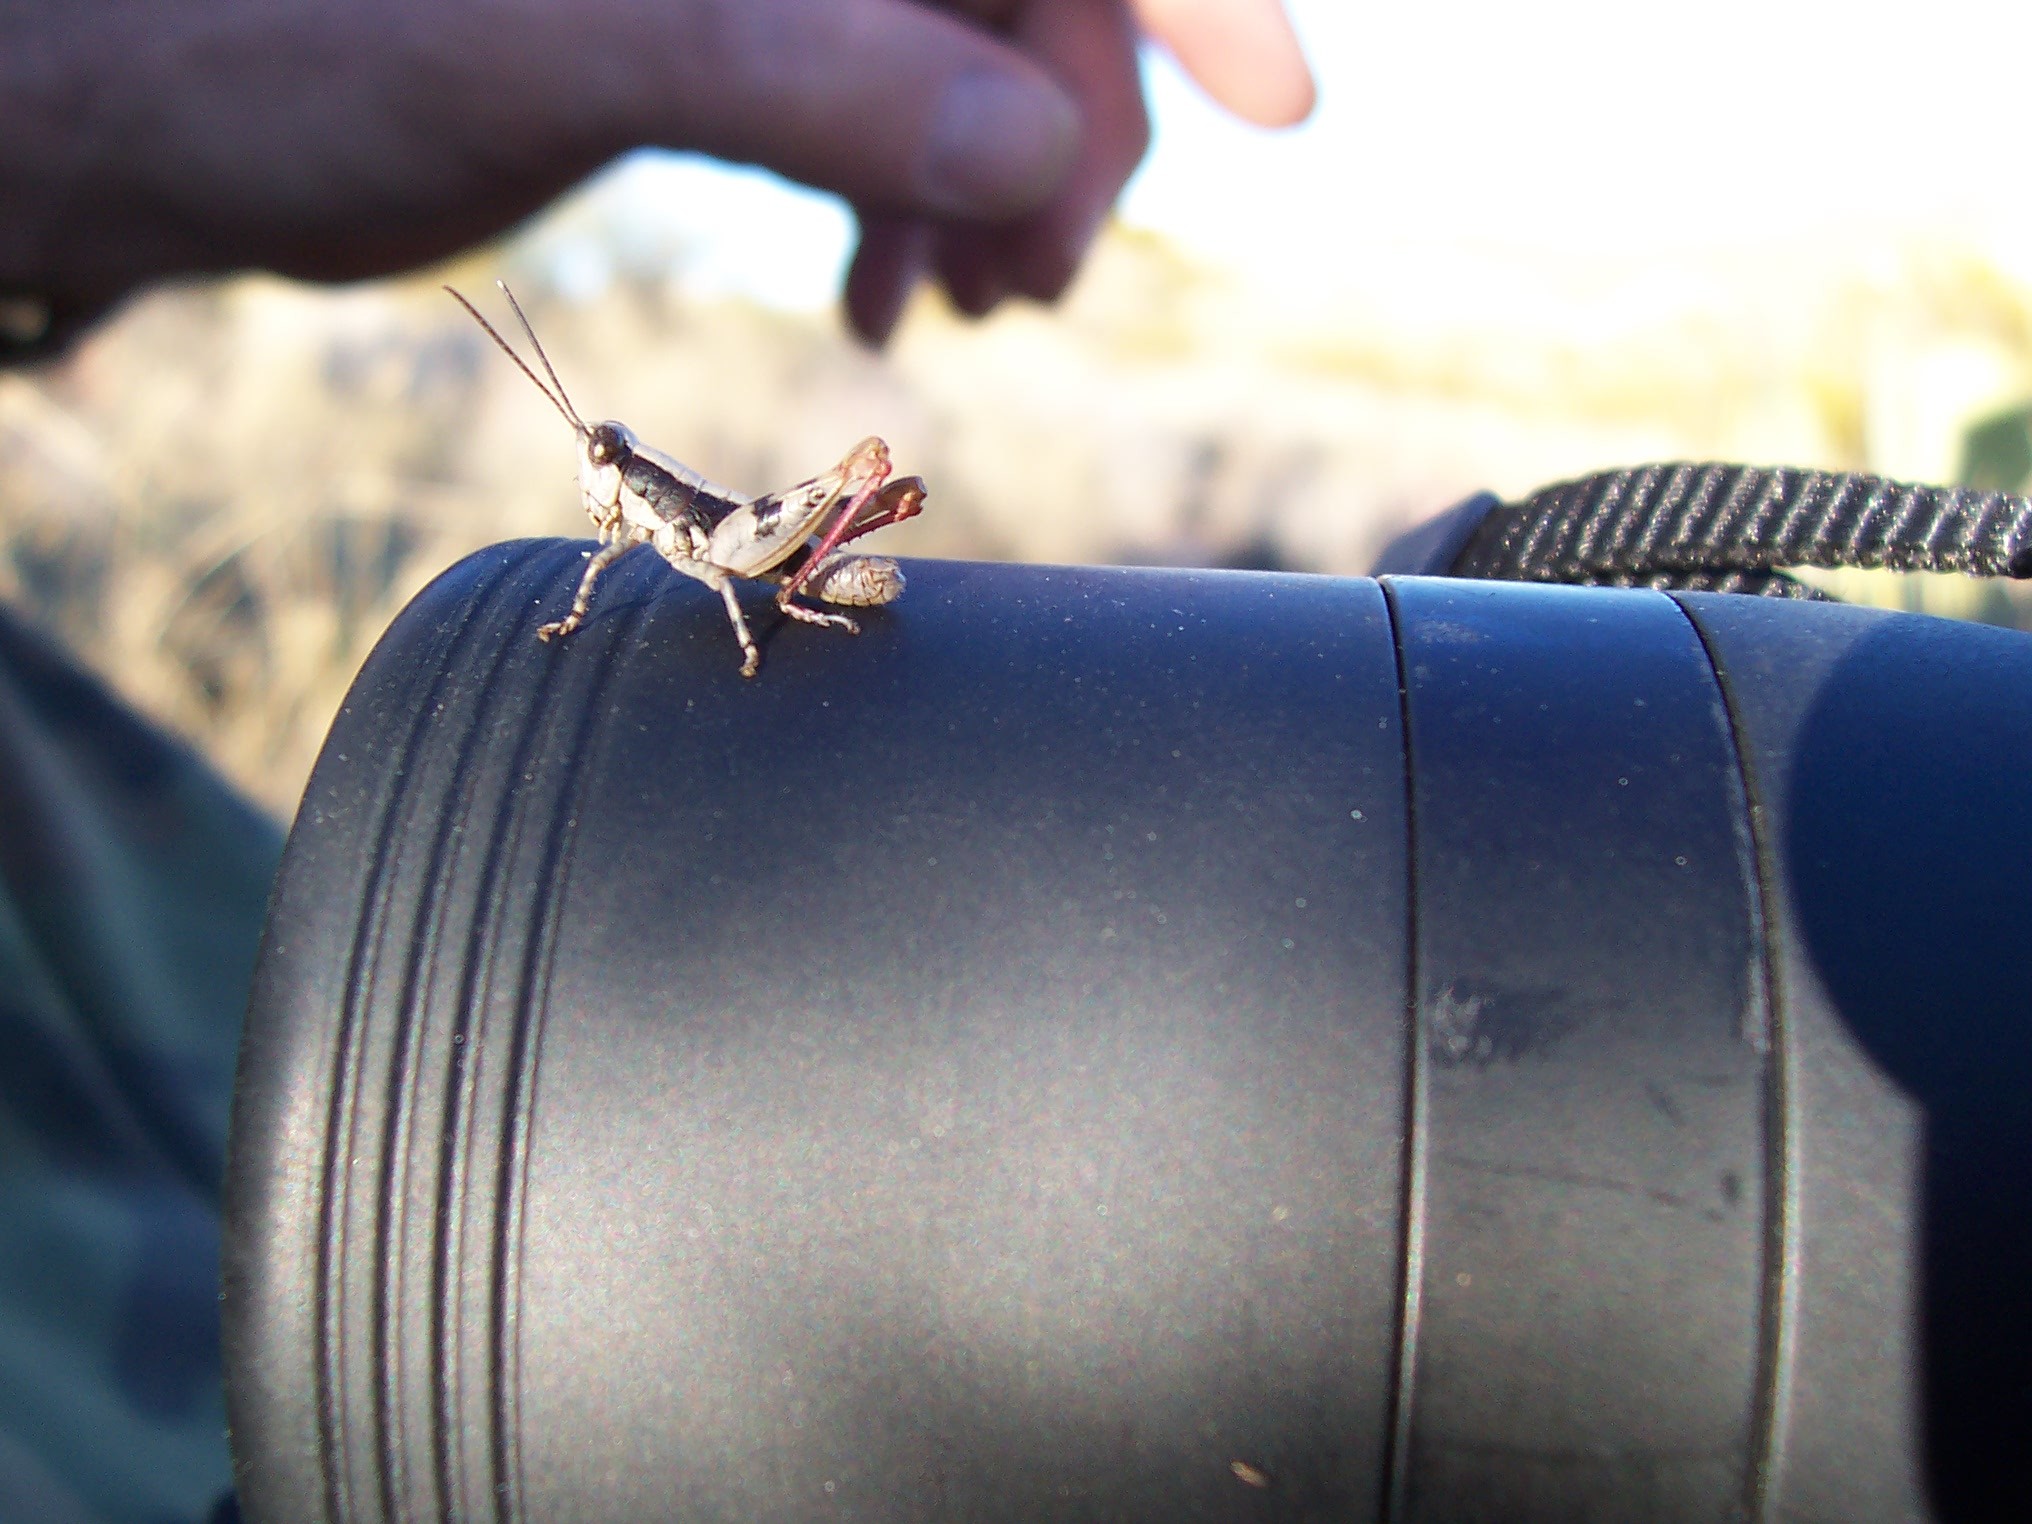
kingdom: Animalia
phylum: Arthropoda
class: Insecta
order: Orthoptera
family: Acrididae
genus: Netrosoma
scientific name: Netrosoma nigropleura
